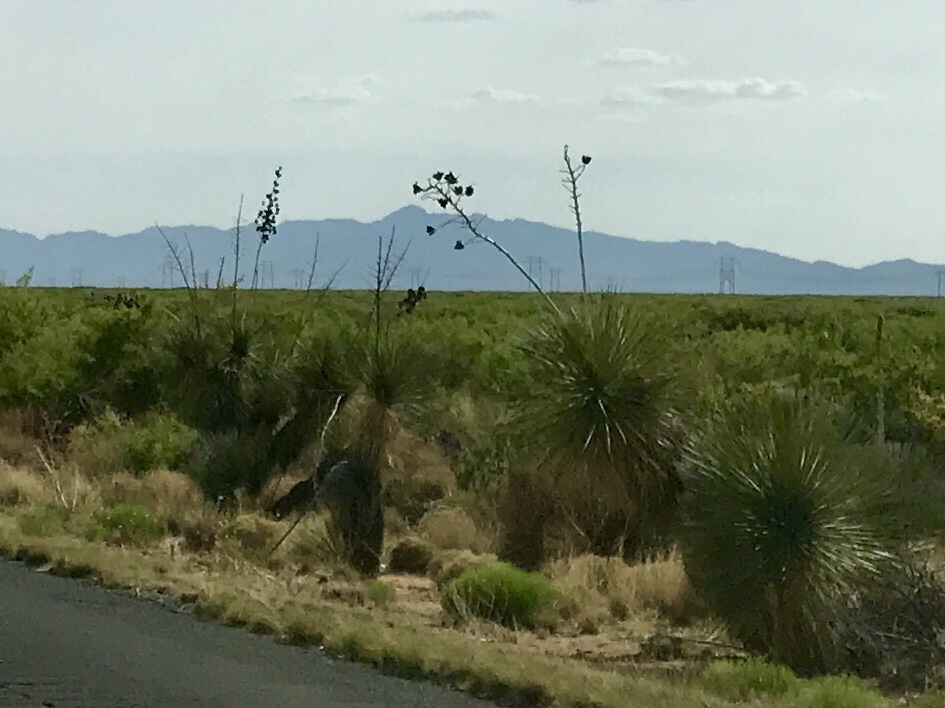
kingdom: Plantae
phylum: Tracheophyta
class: Liliopsida
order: Asparagales
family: Asparagaceae
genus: Yucca
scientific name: Yucca elata
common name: Palmella
